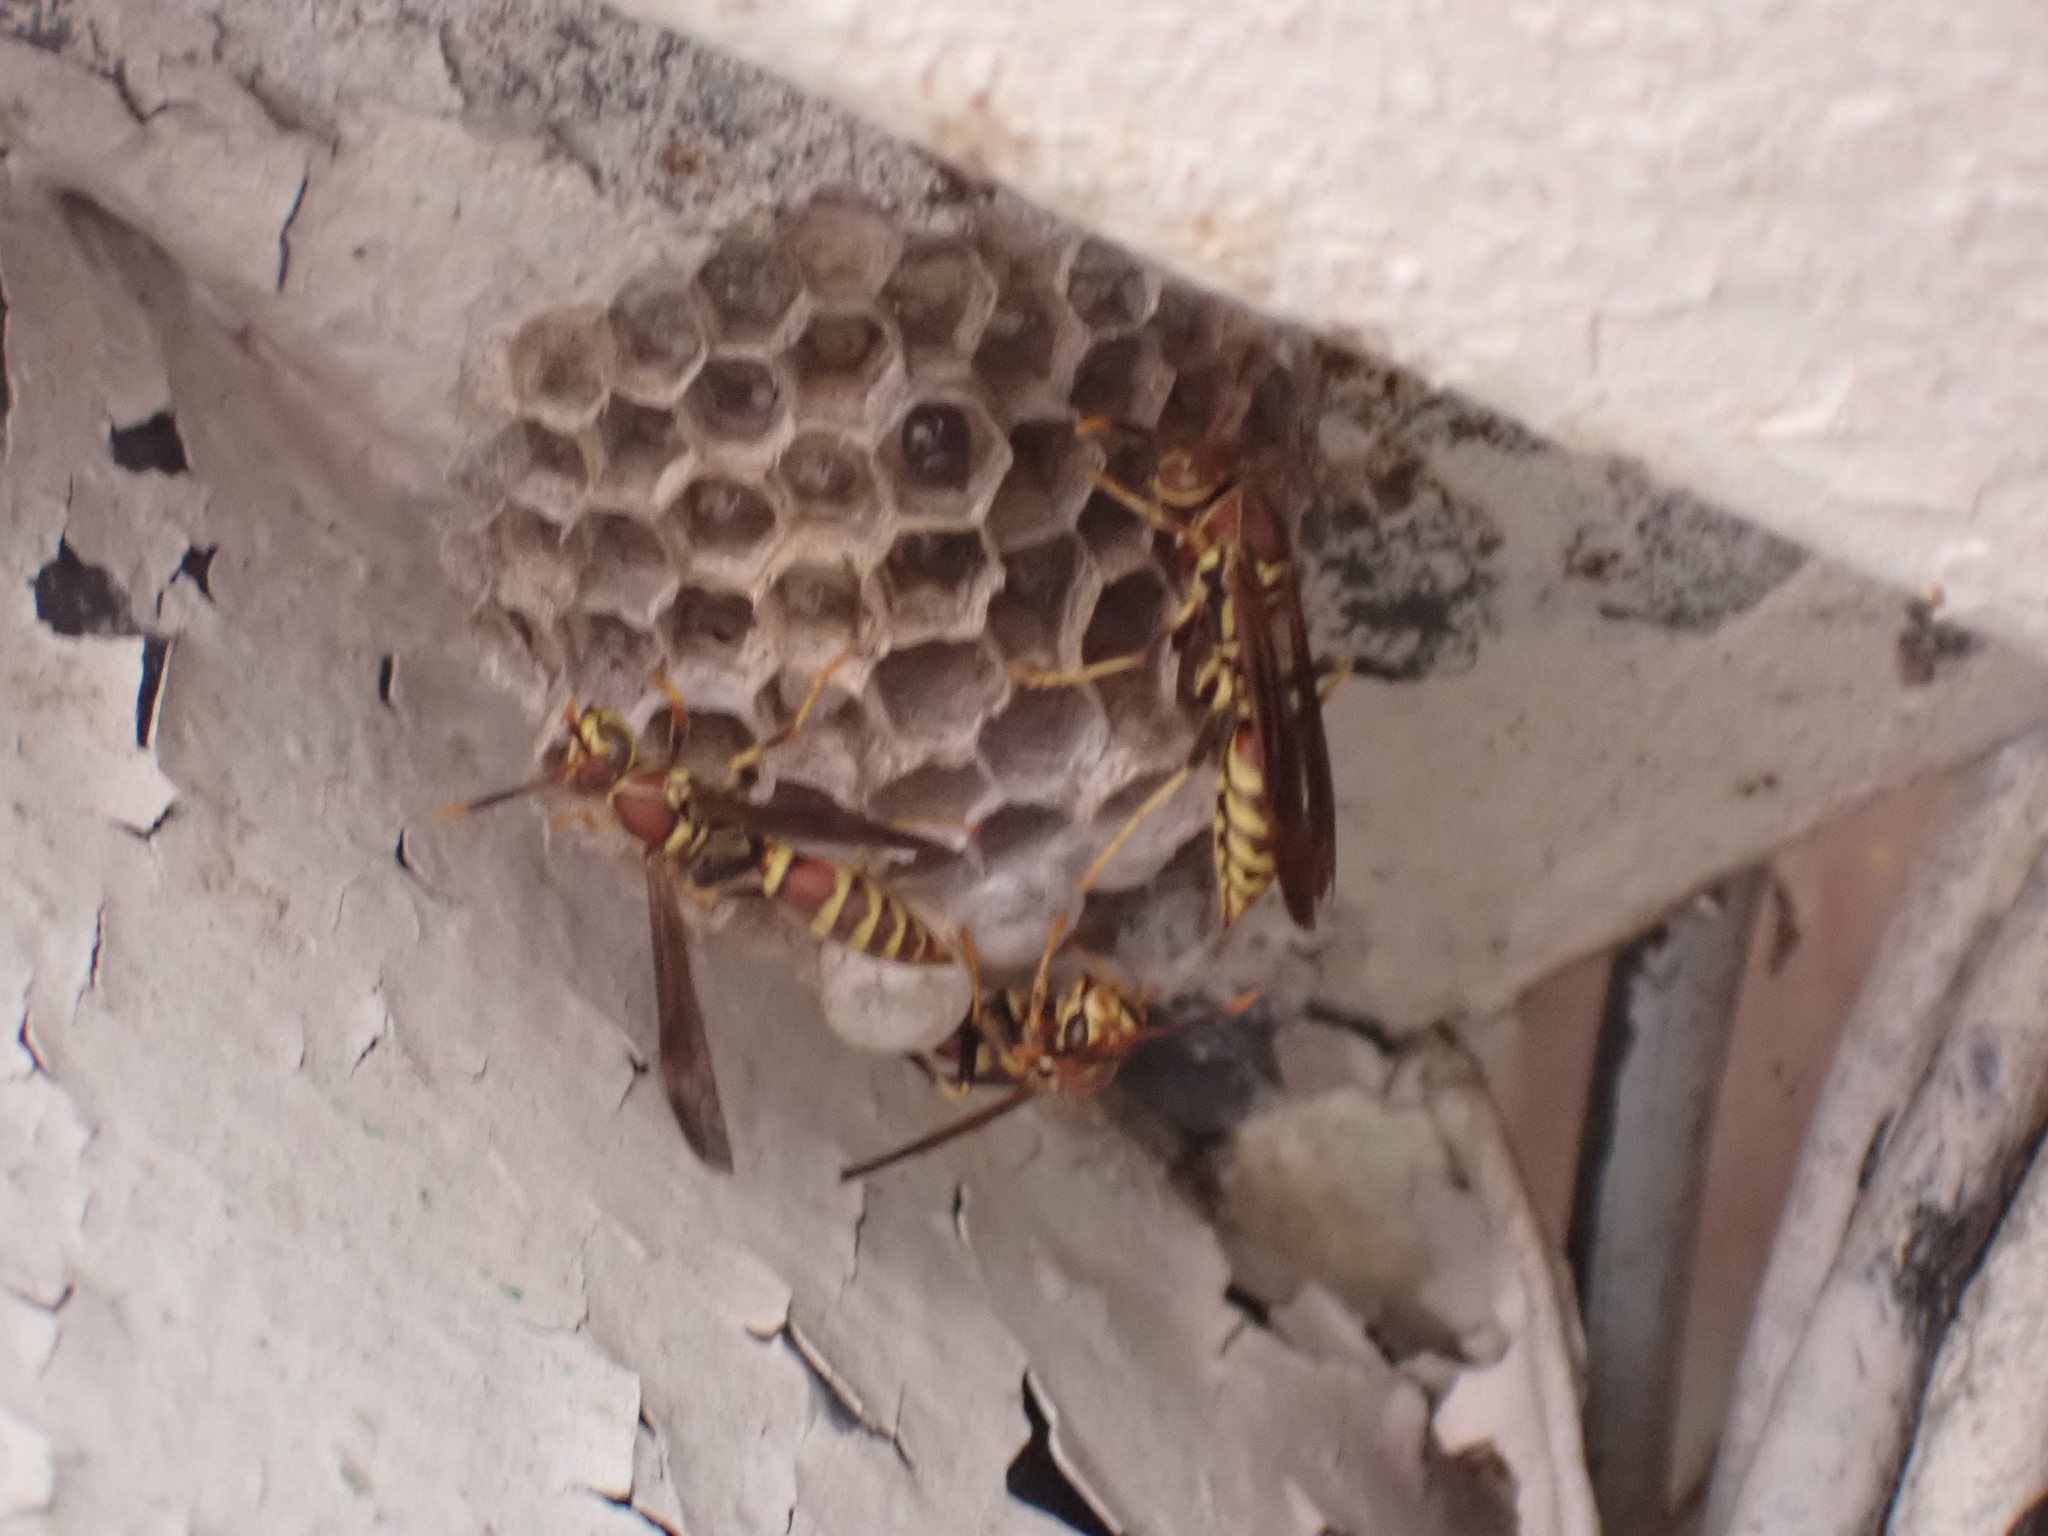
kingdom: Animalia
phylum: Arthropoda
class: Insecta
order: Hymenoptera
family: Eumenidae
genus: Polistes
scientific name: Polistes exclamans
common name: Paper wasp
